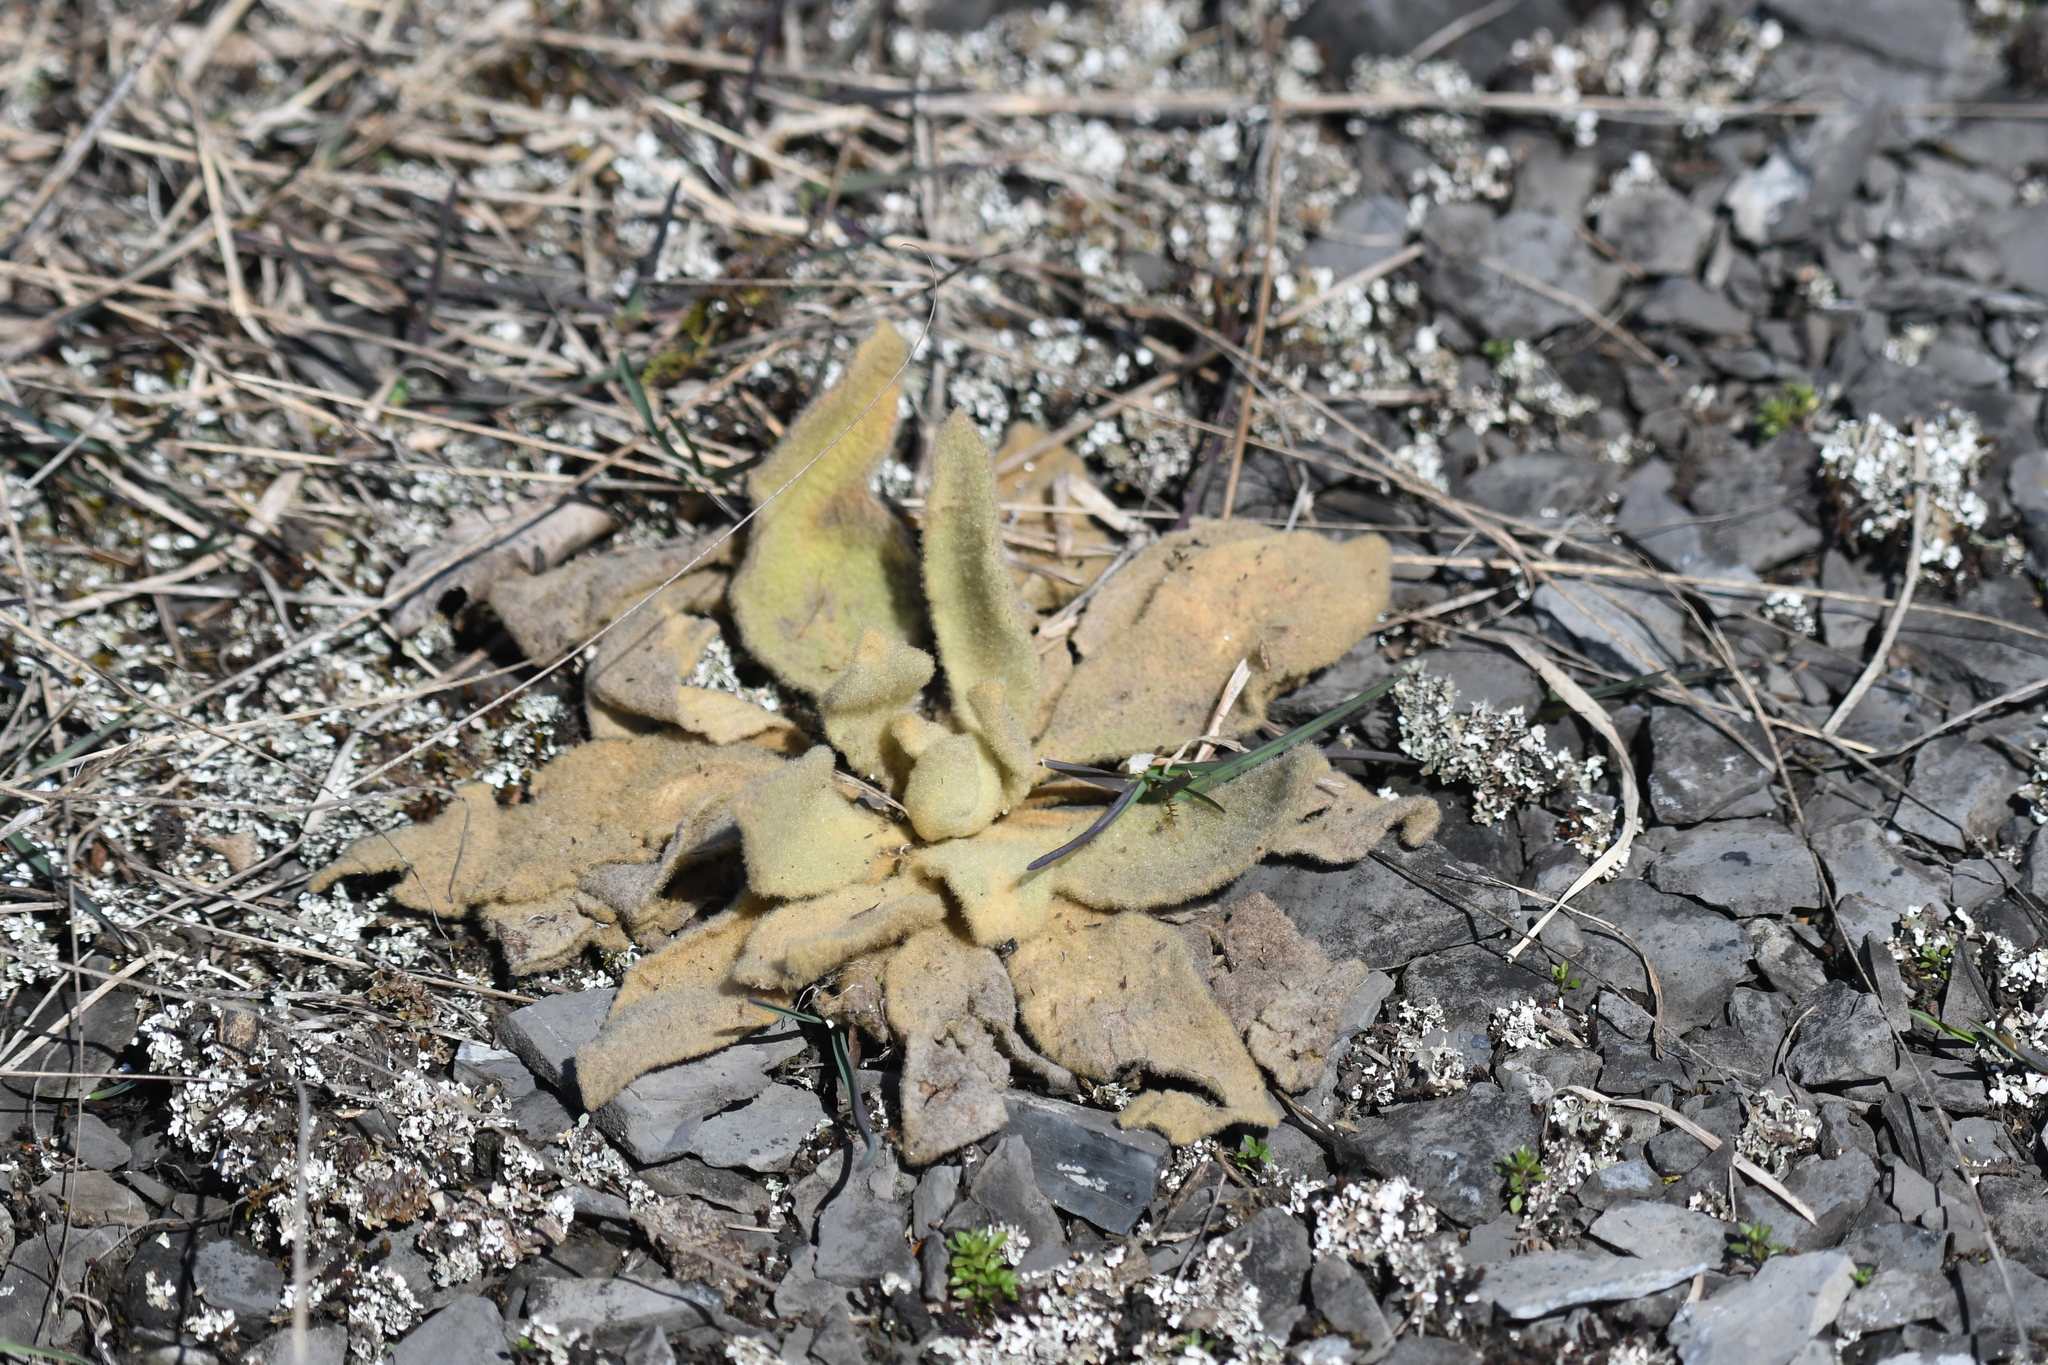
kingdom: Plantae
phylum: Tracheophyta
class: Magnoliopsida
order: Lamiales
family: Scrophulariaceae
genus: Verbascum
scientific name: Verbascum thapsus
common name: Common mullein
